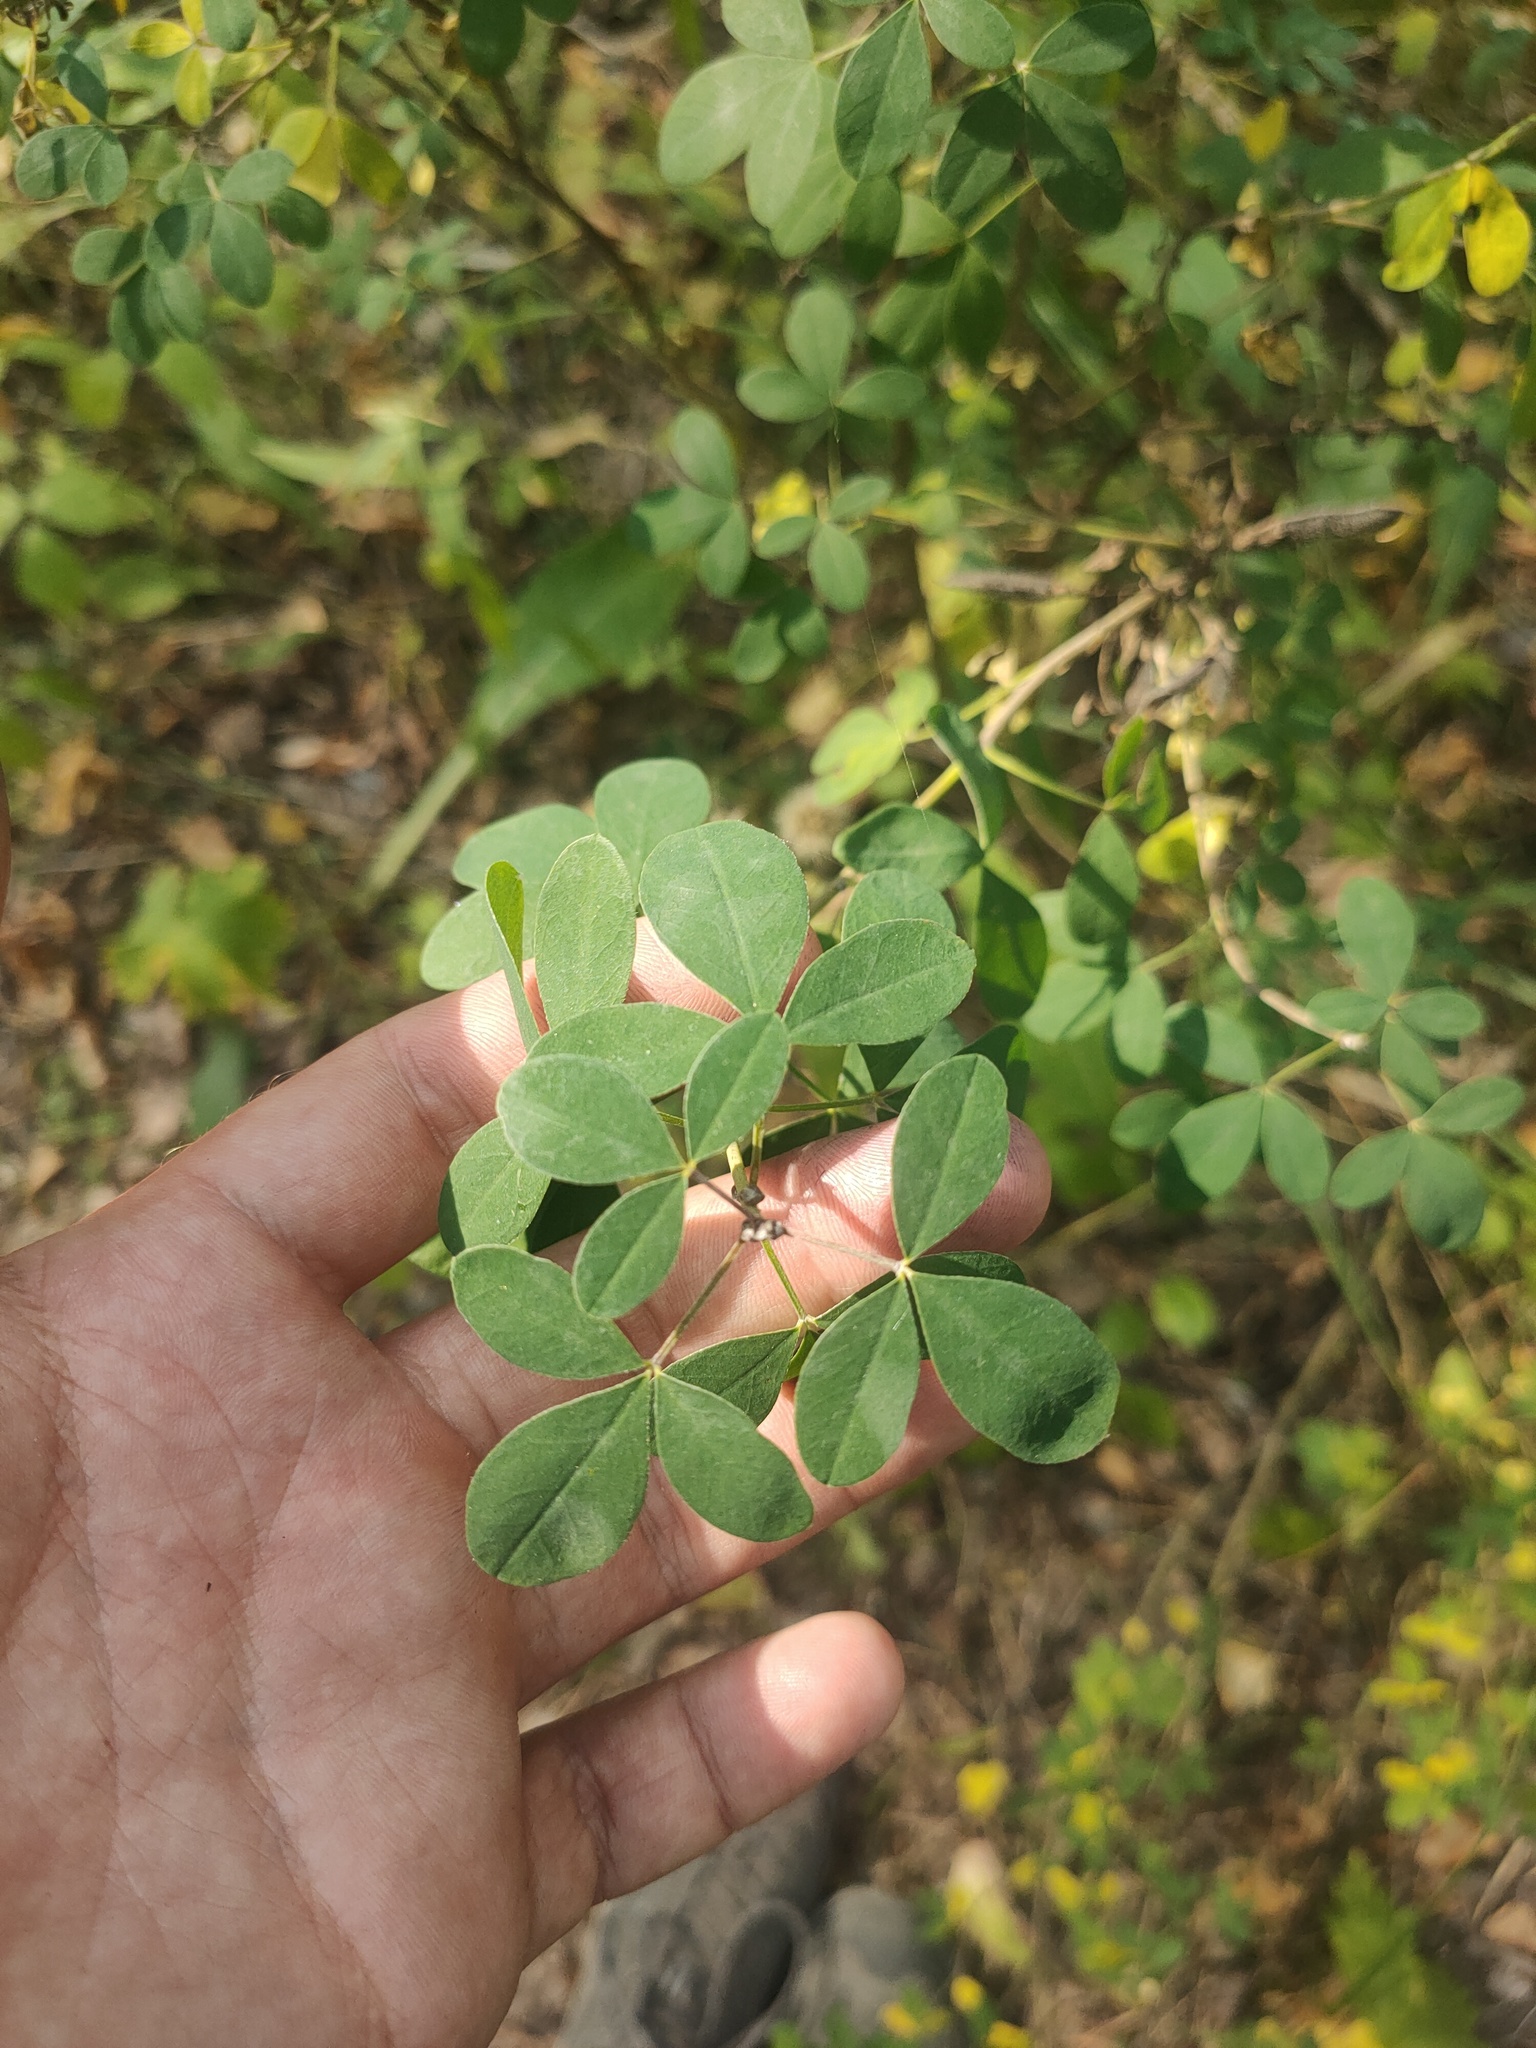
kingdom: Plantae
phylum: Tracheophyta
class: Magnoliopsida
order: Fabales
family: Fabaceae
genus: Chamaecytisus
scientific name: Chamaecytisus ruthenicus
